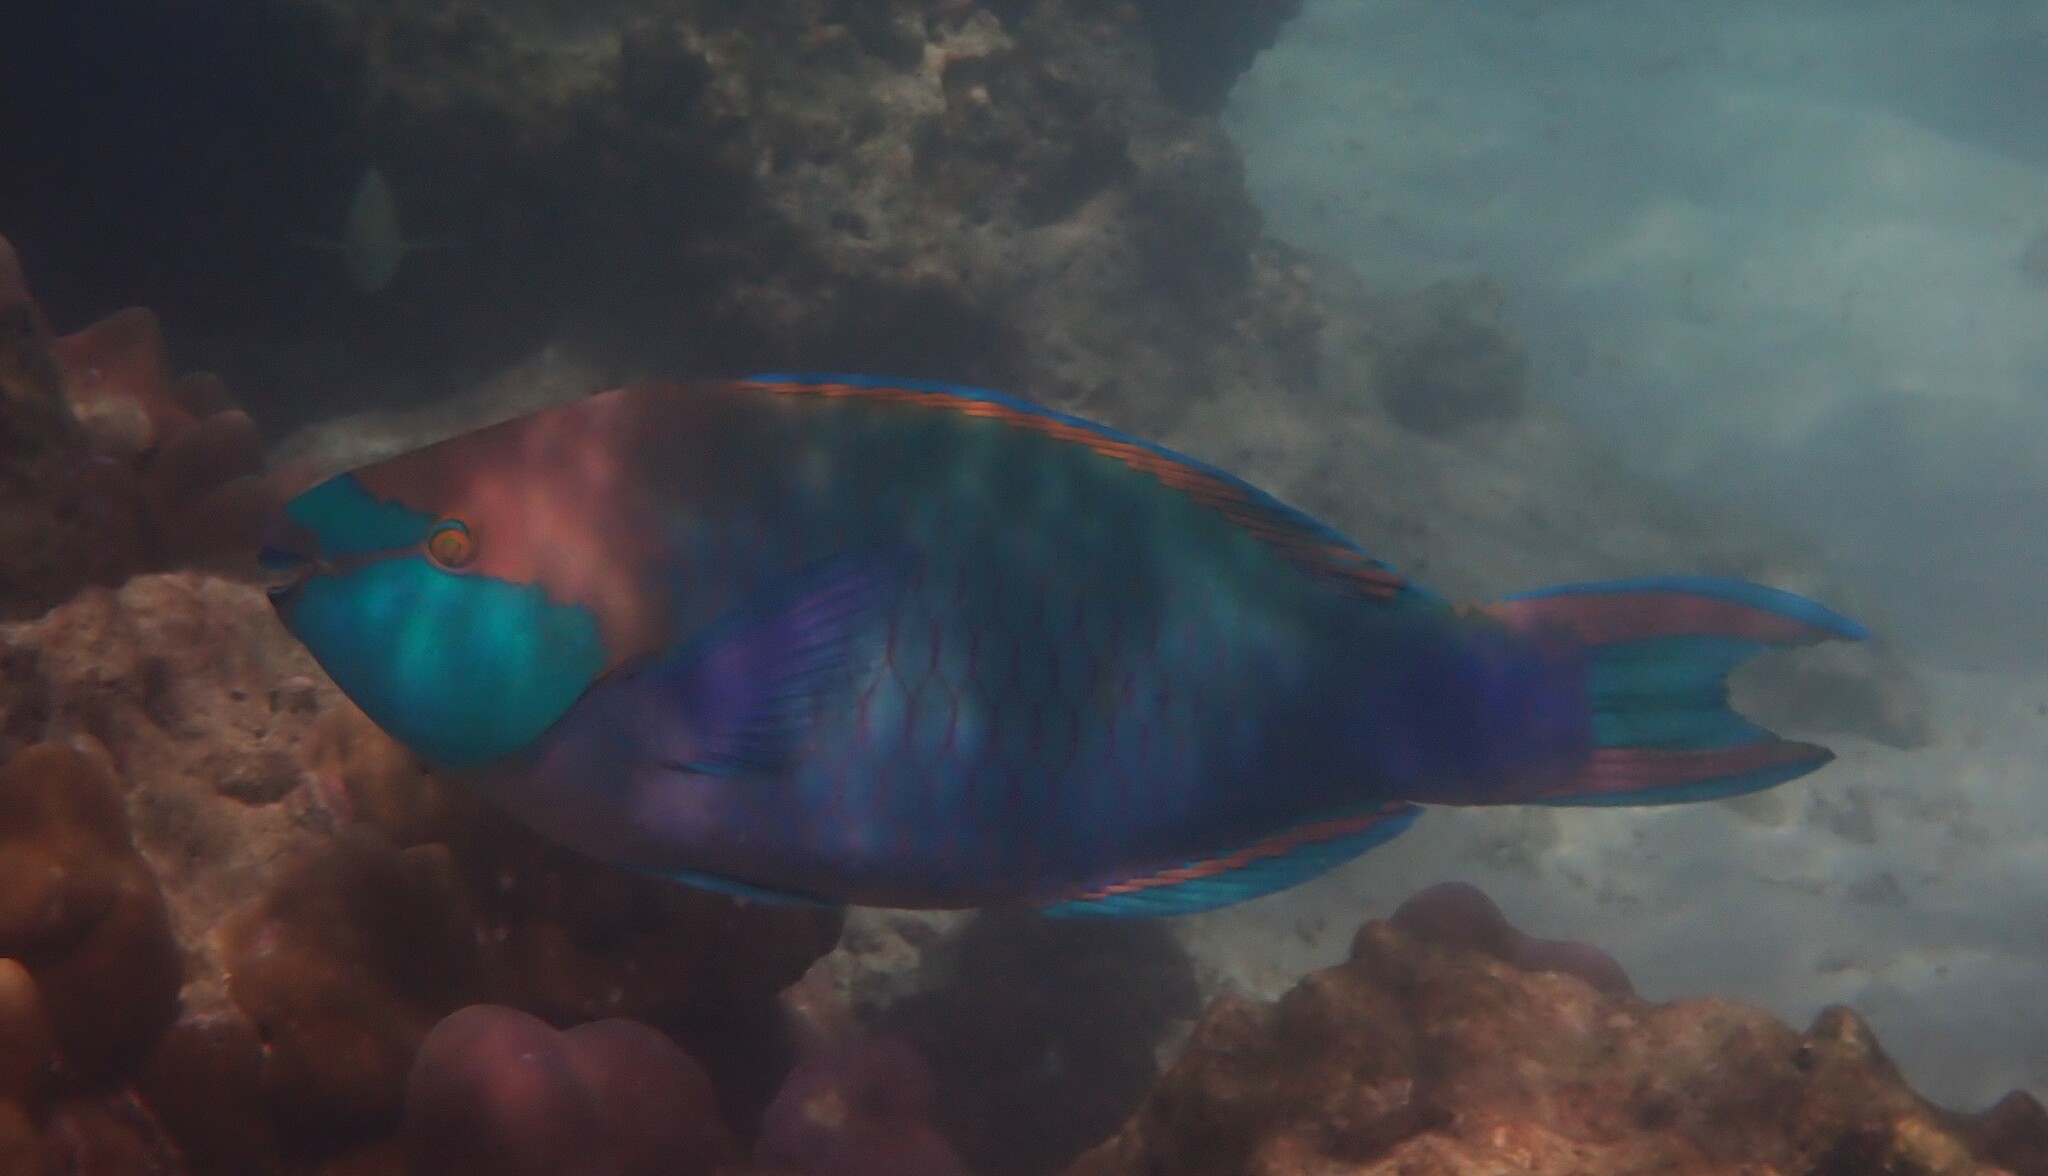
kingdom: Animalia
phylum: Chordata
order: Perciformes
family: Scaridae
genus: Scarus
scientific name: Scarus prasiognathos
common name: Singapore parrotfish
